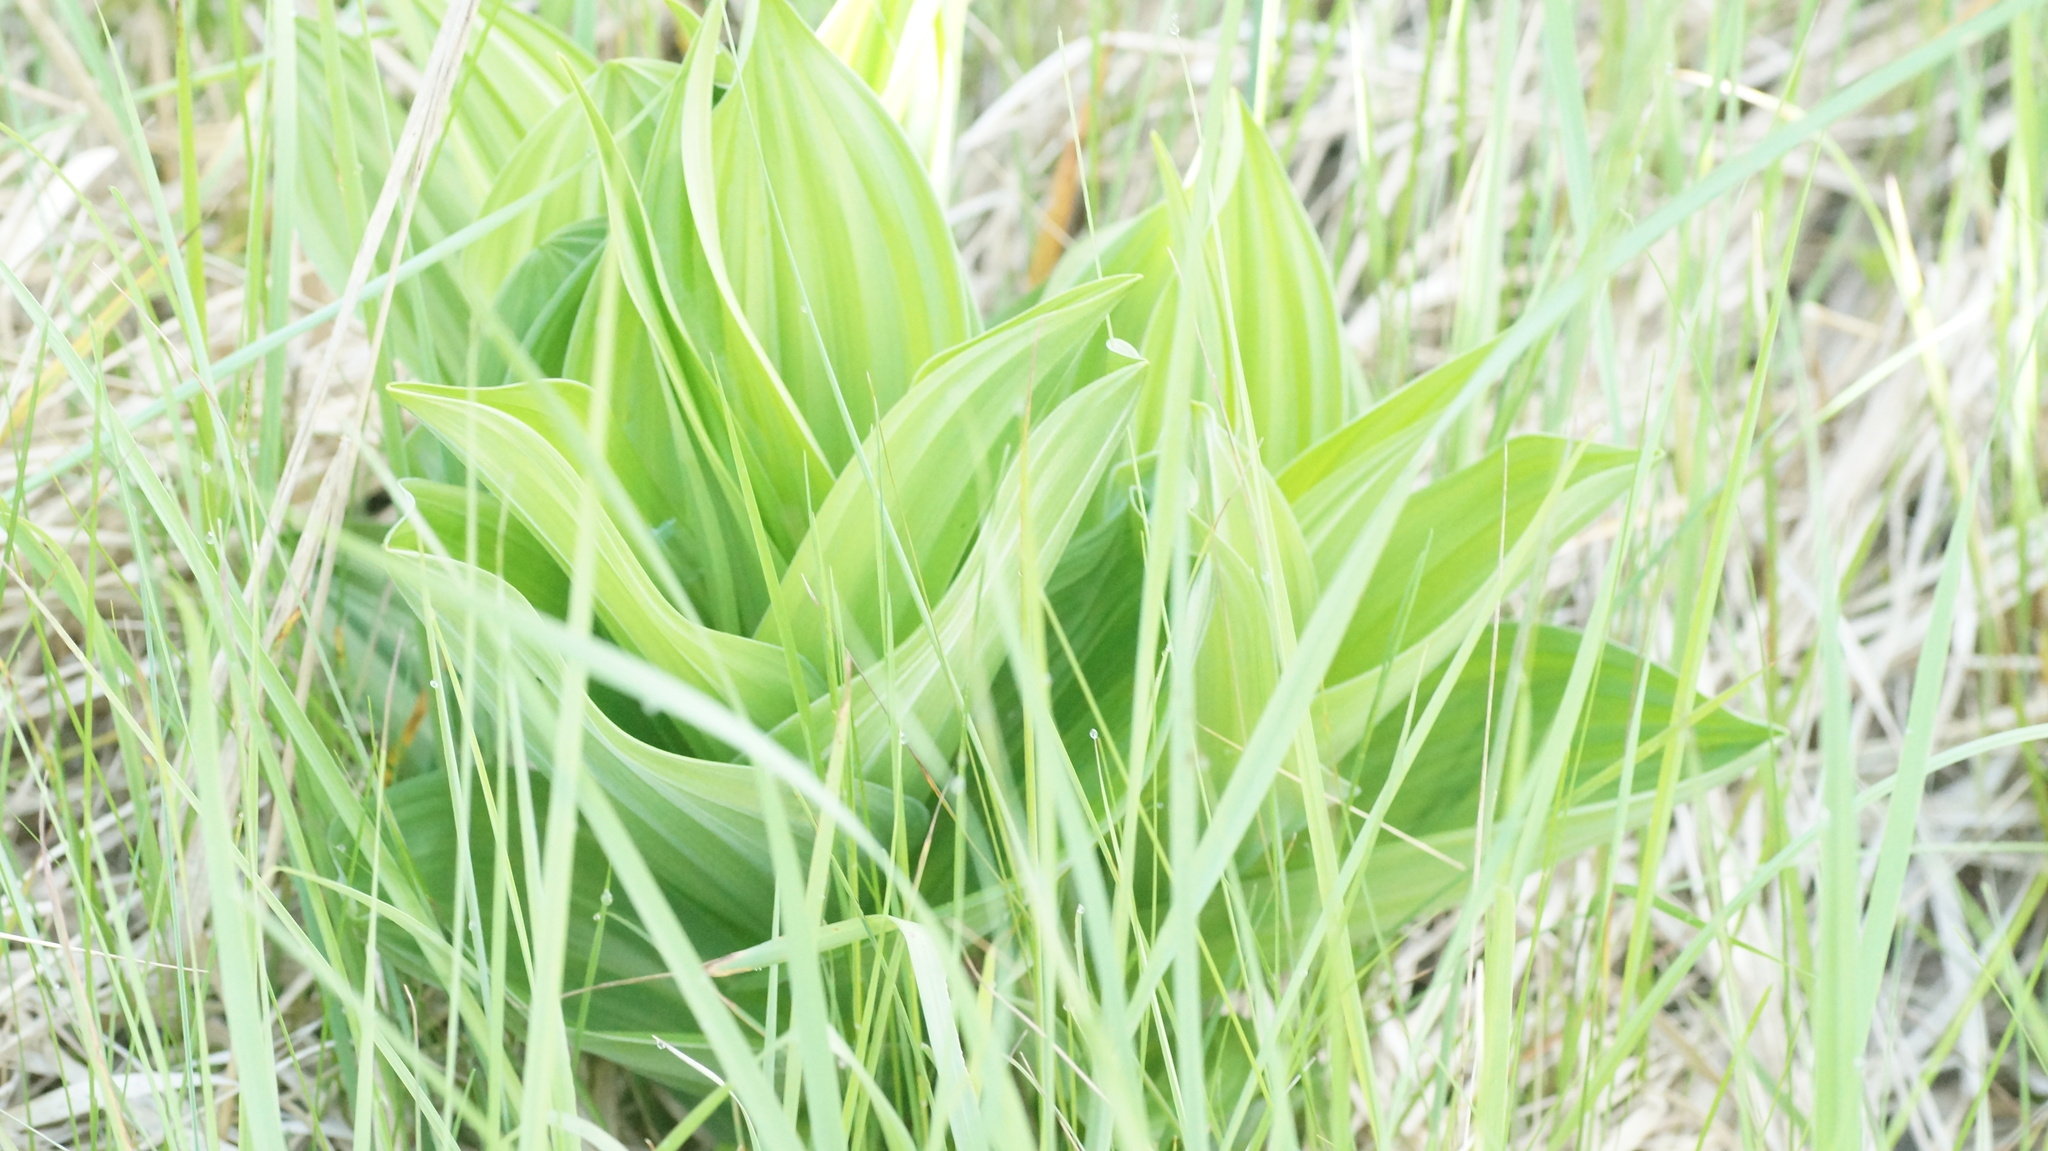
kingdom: Plantae
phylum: Tracheophyta
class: Liliopsida
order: Liliales
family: Melanthiaceae
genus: Veratrum
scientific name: Veratrum lobelianum
